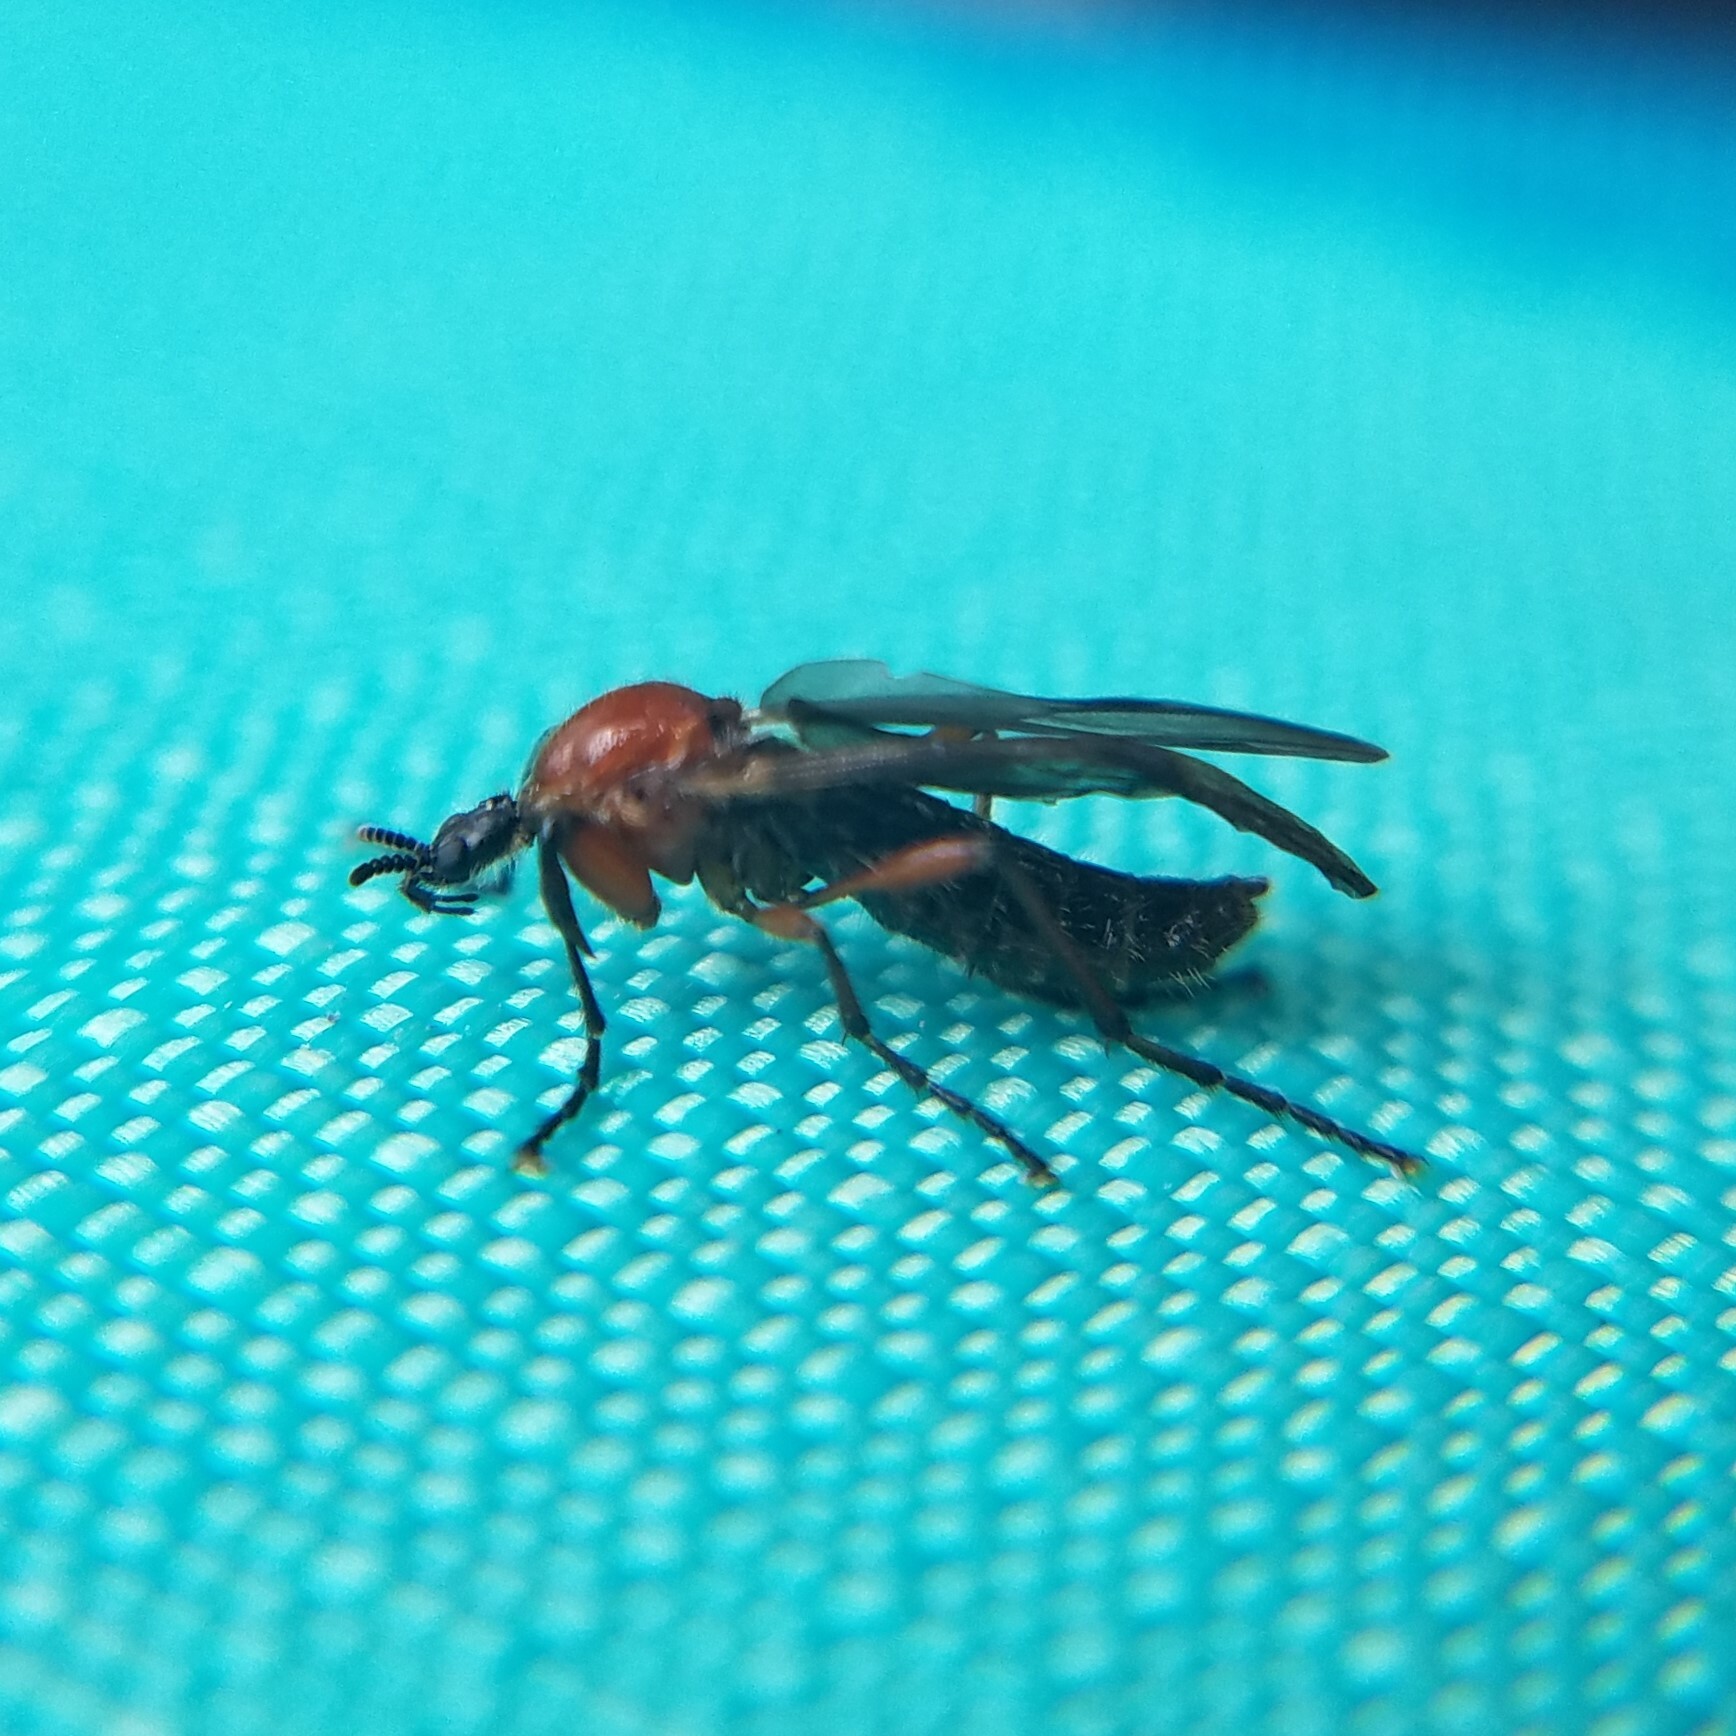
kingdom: Animalia
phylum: Arthropoda
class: Insecta
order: Diptera
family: Bibionidae
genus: Bibio
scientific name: Bibio longipes
